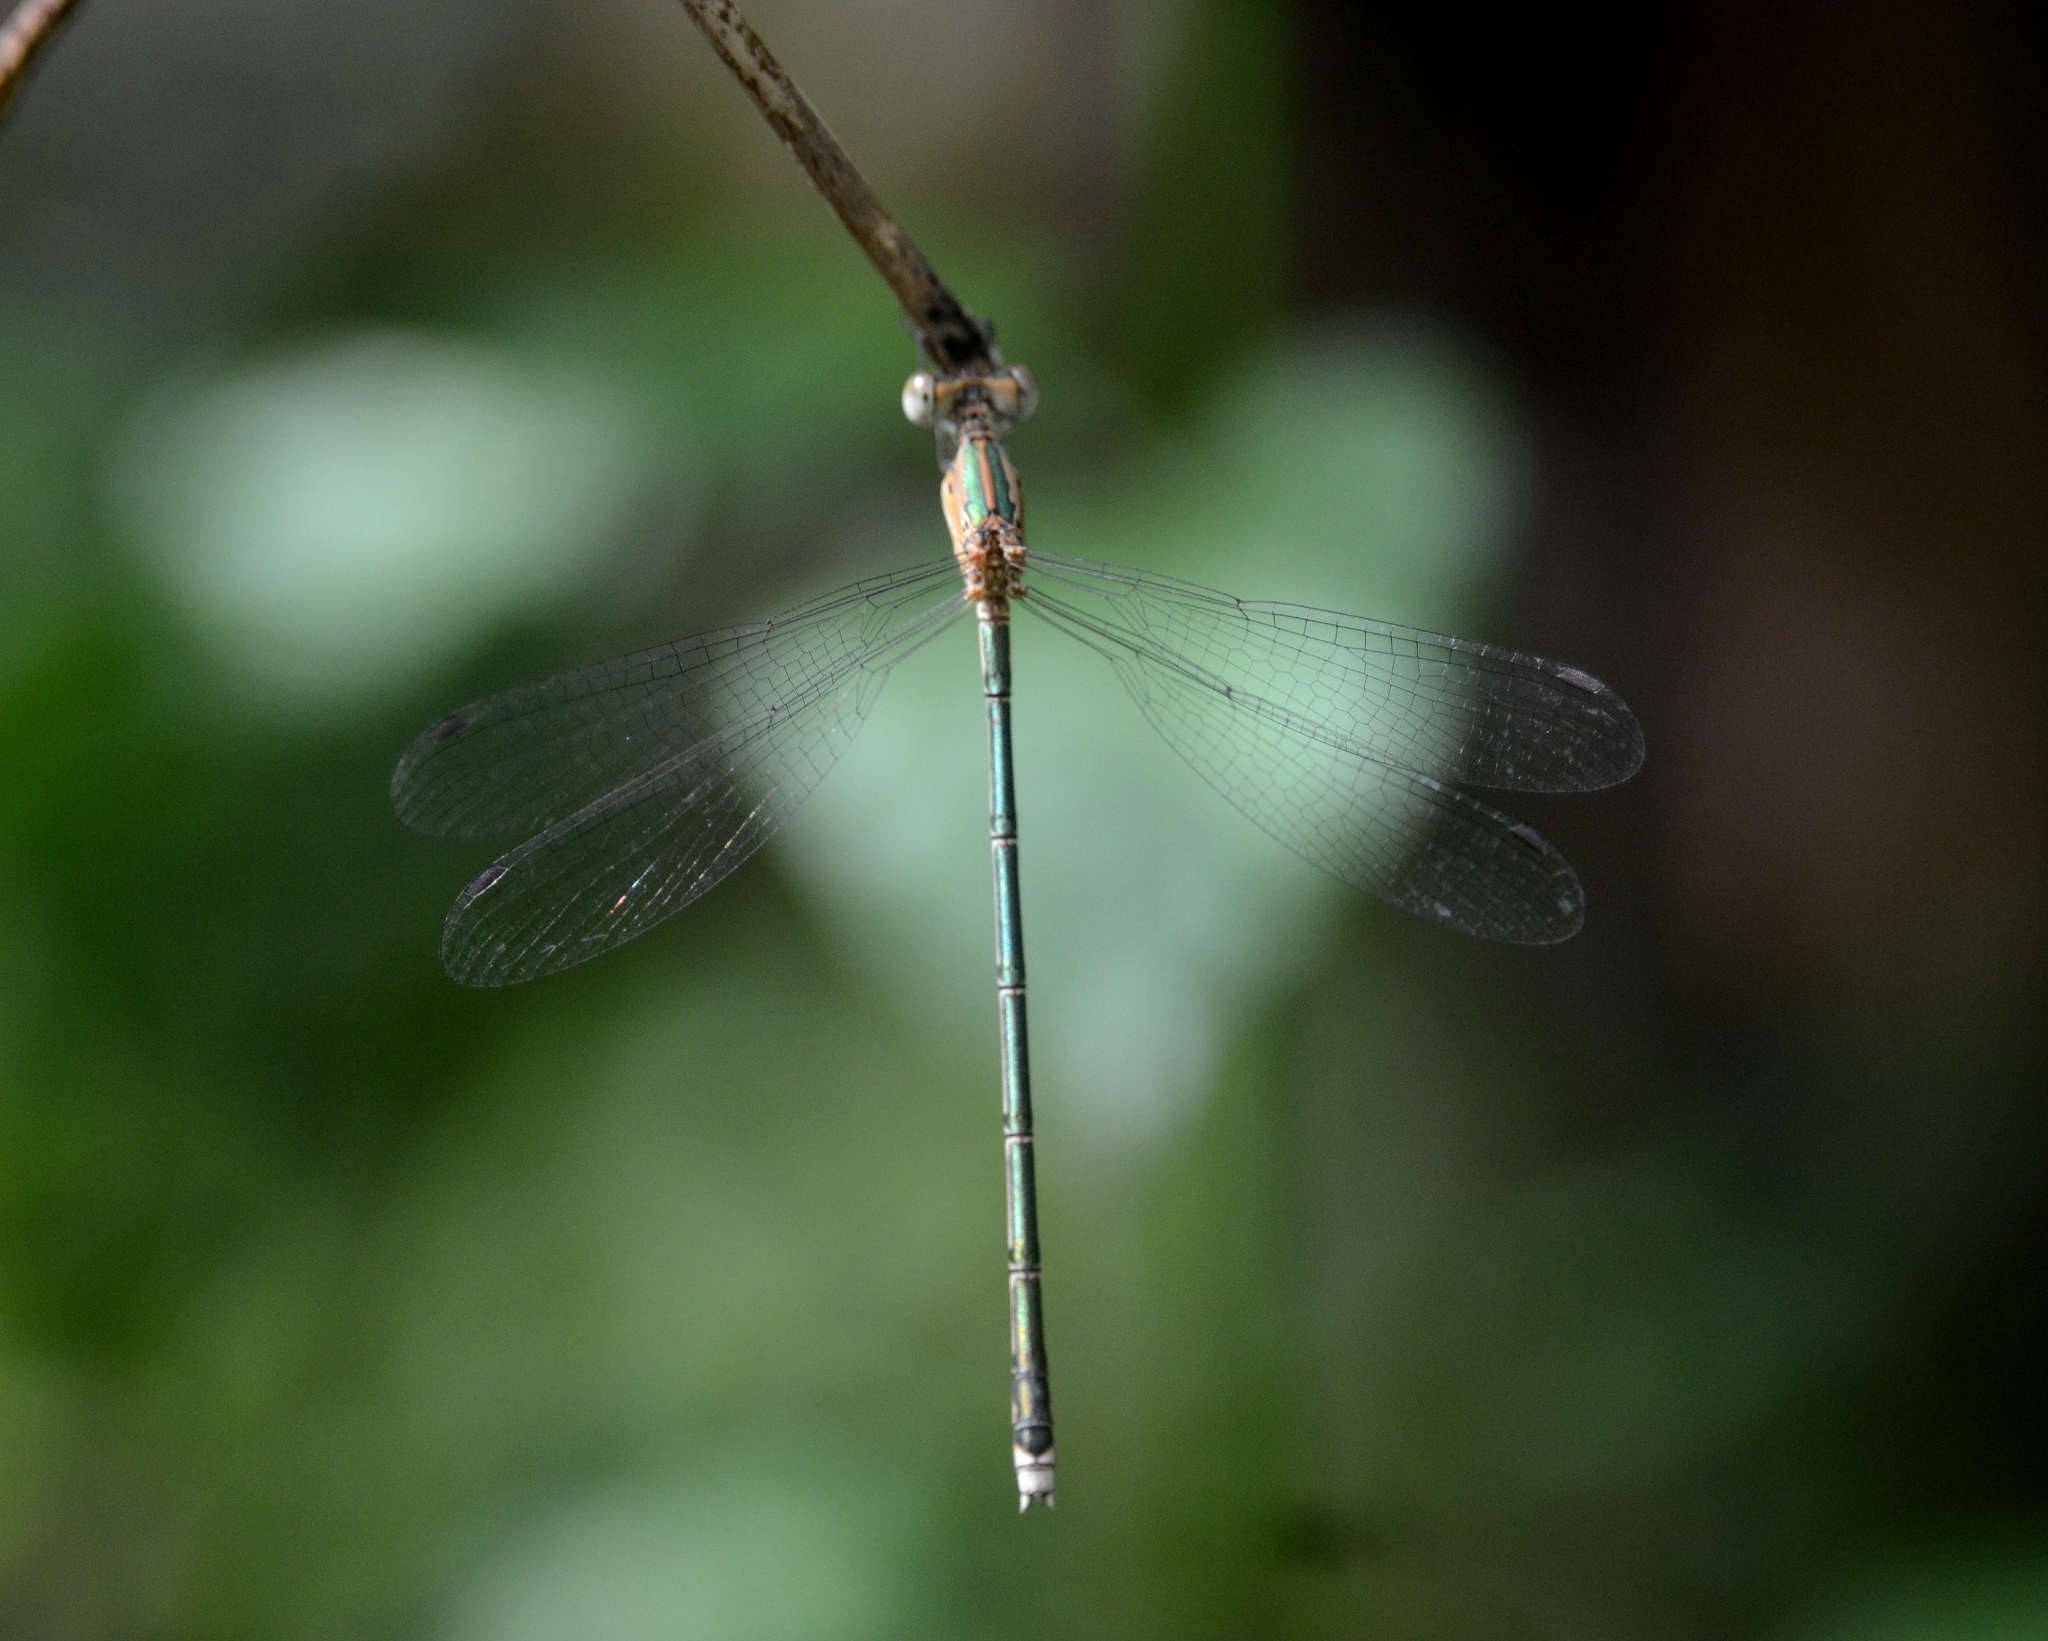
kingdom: Animalia
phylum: Arthropoda
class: Insecta
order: Odonata
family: Lestidae
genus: Lestes
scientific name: Lestes elatus
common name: Emerald spreadwing
